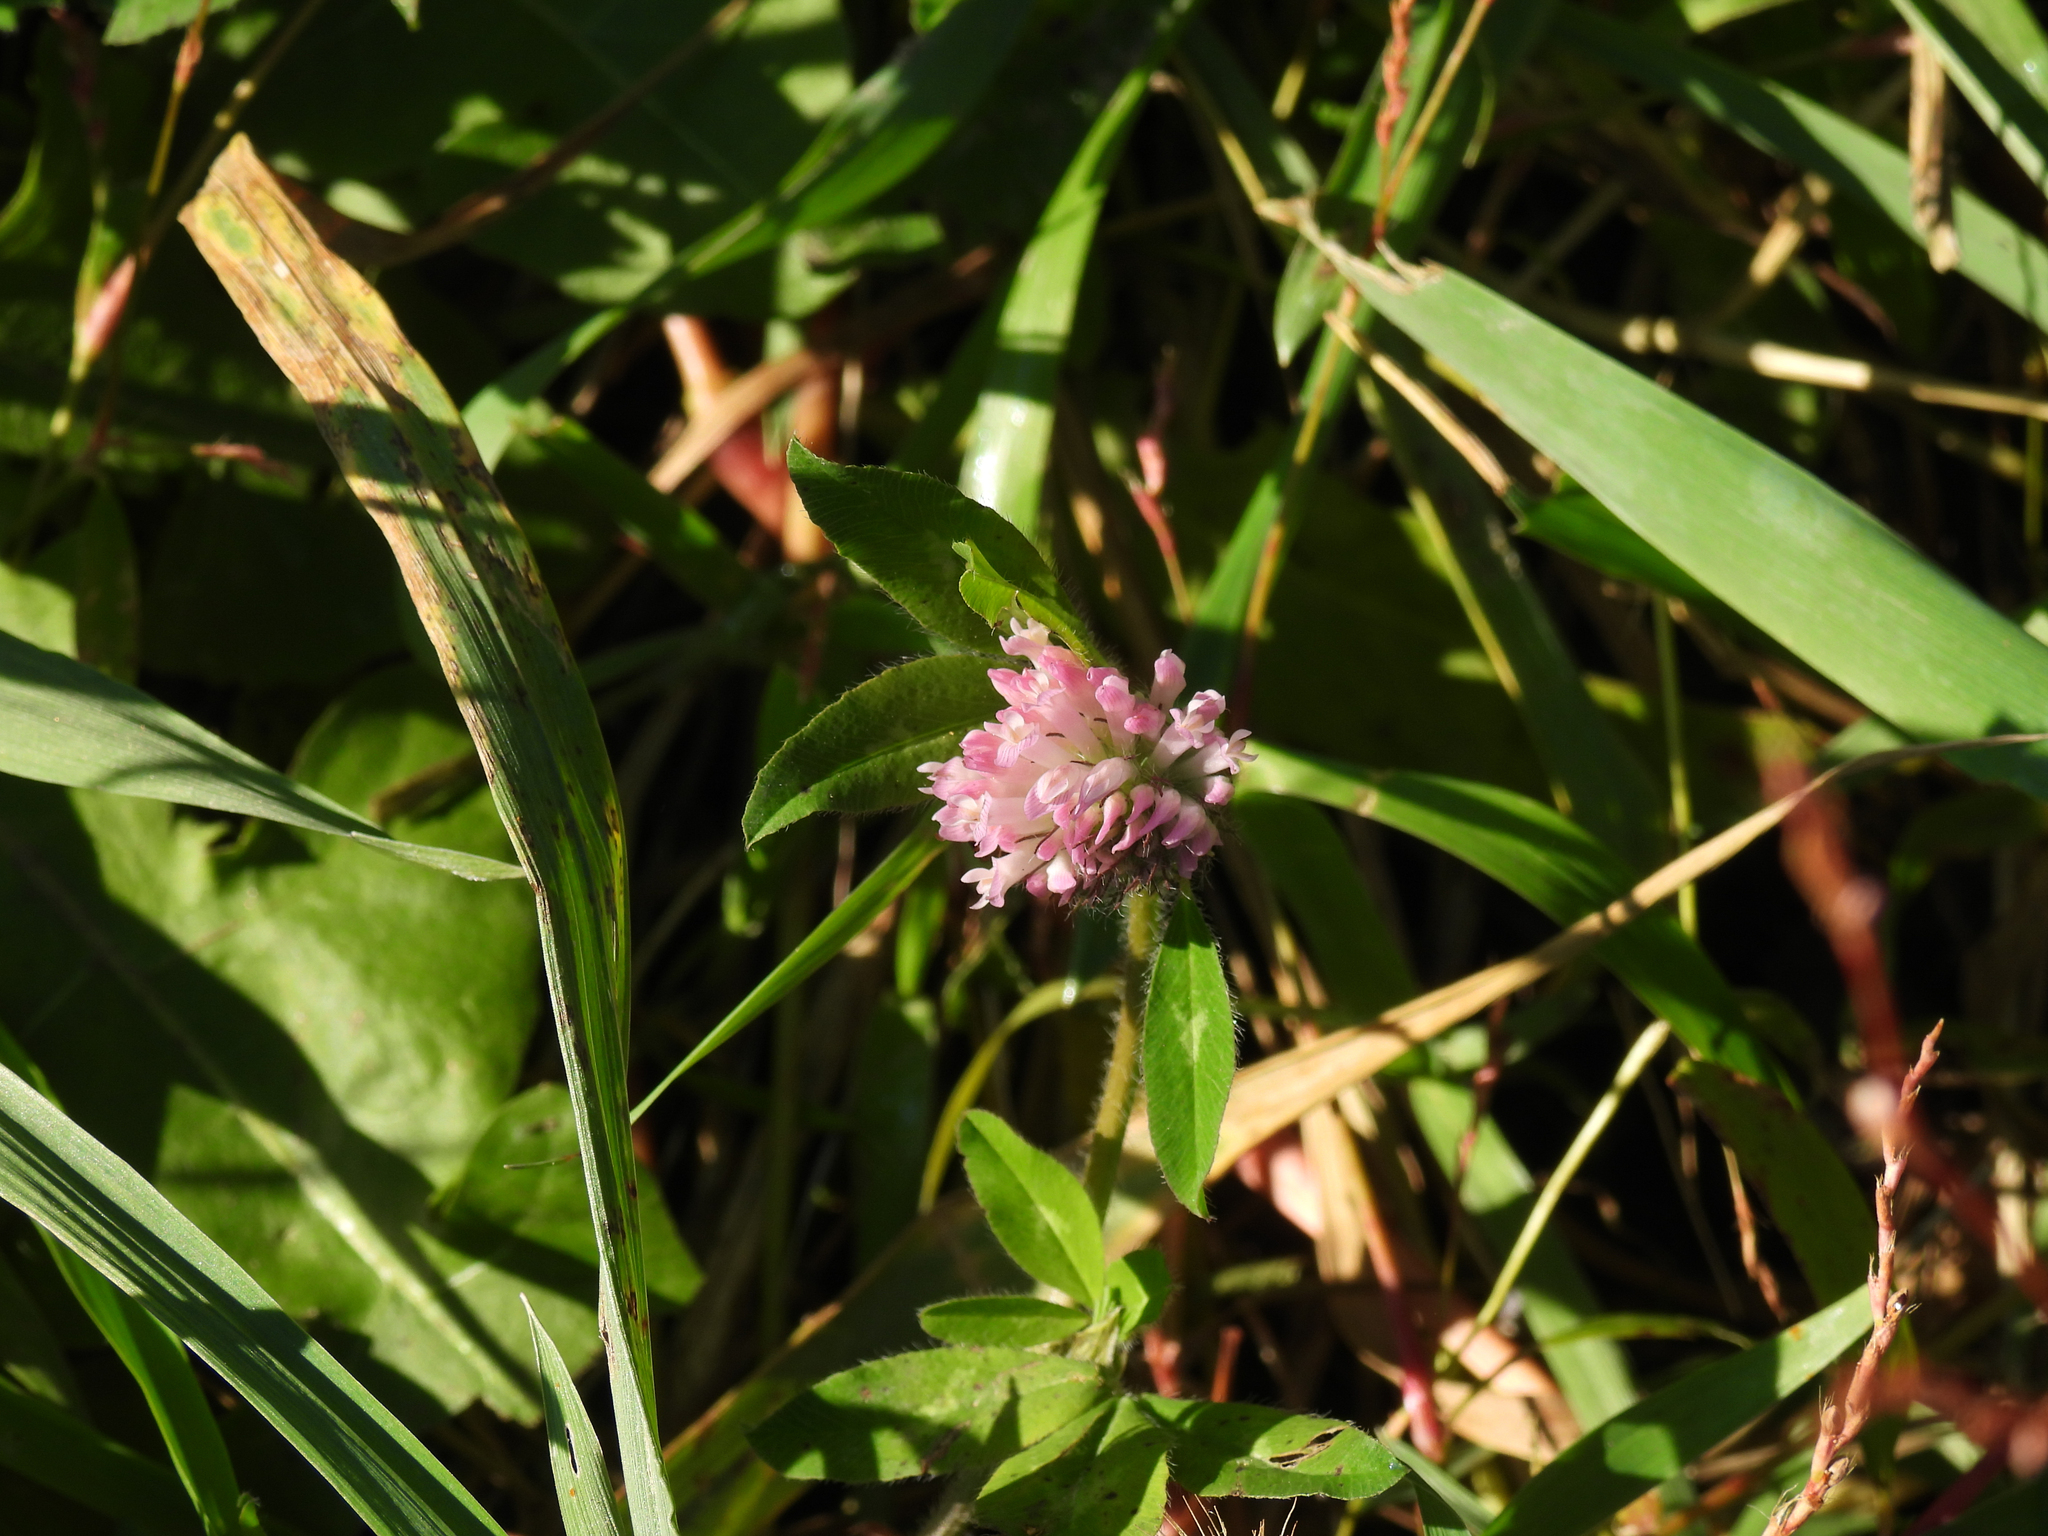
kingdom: Plantae
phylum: Tracheophyta
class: Magnoliopsida
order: Fabales
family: Fabaceae
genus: Trifolium
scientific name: Trifolium pratense
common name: Red clover
